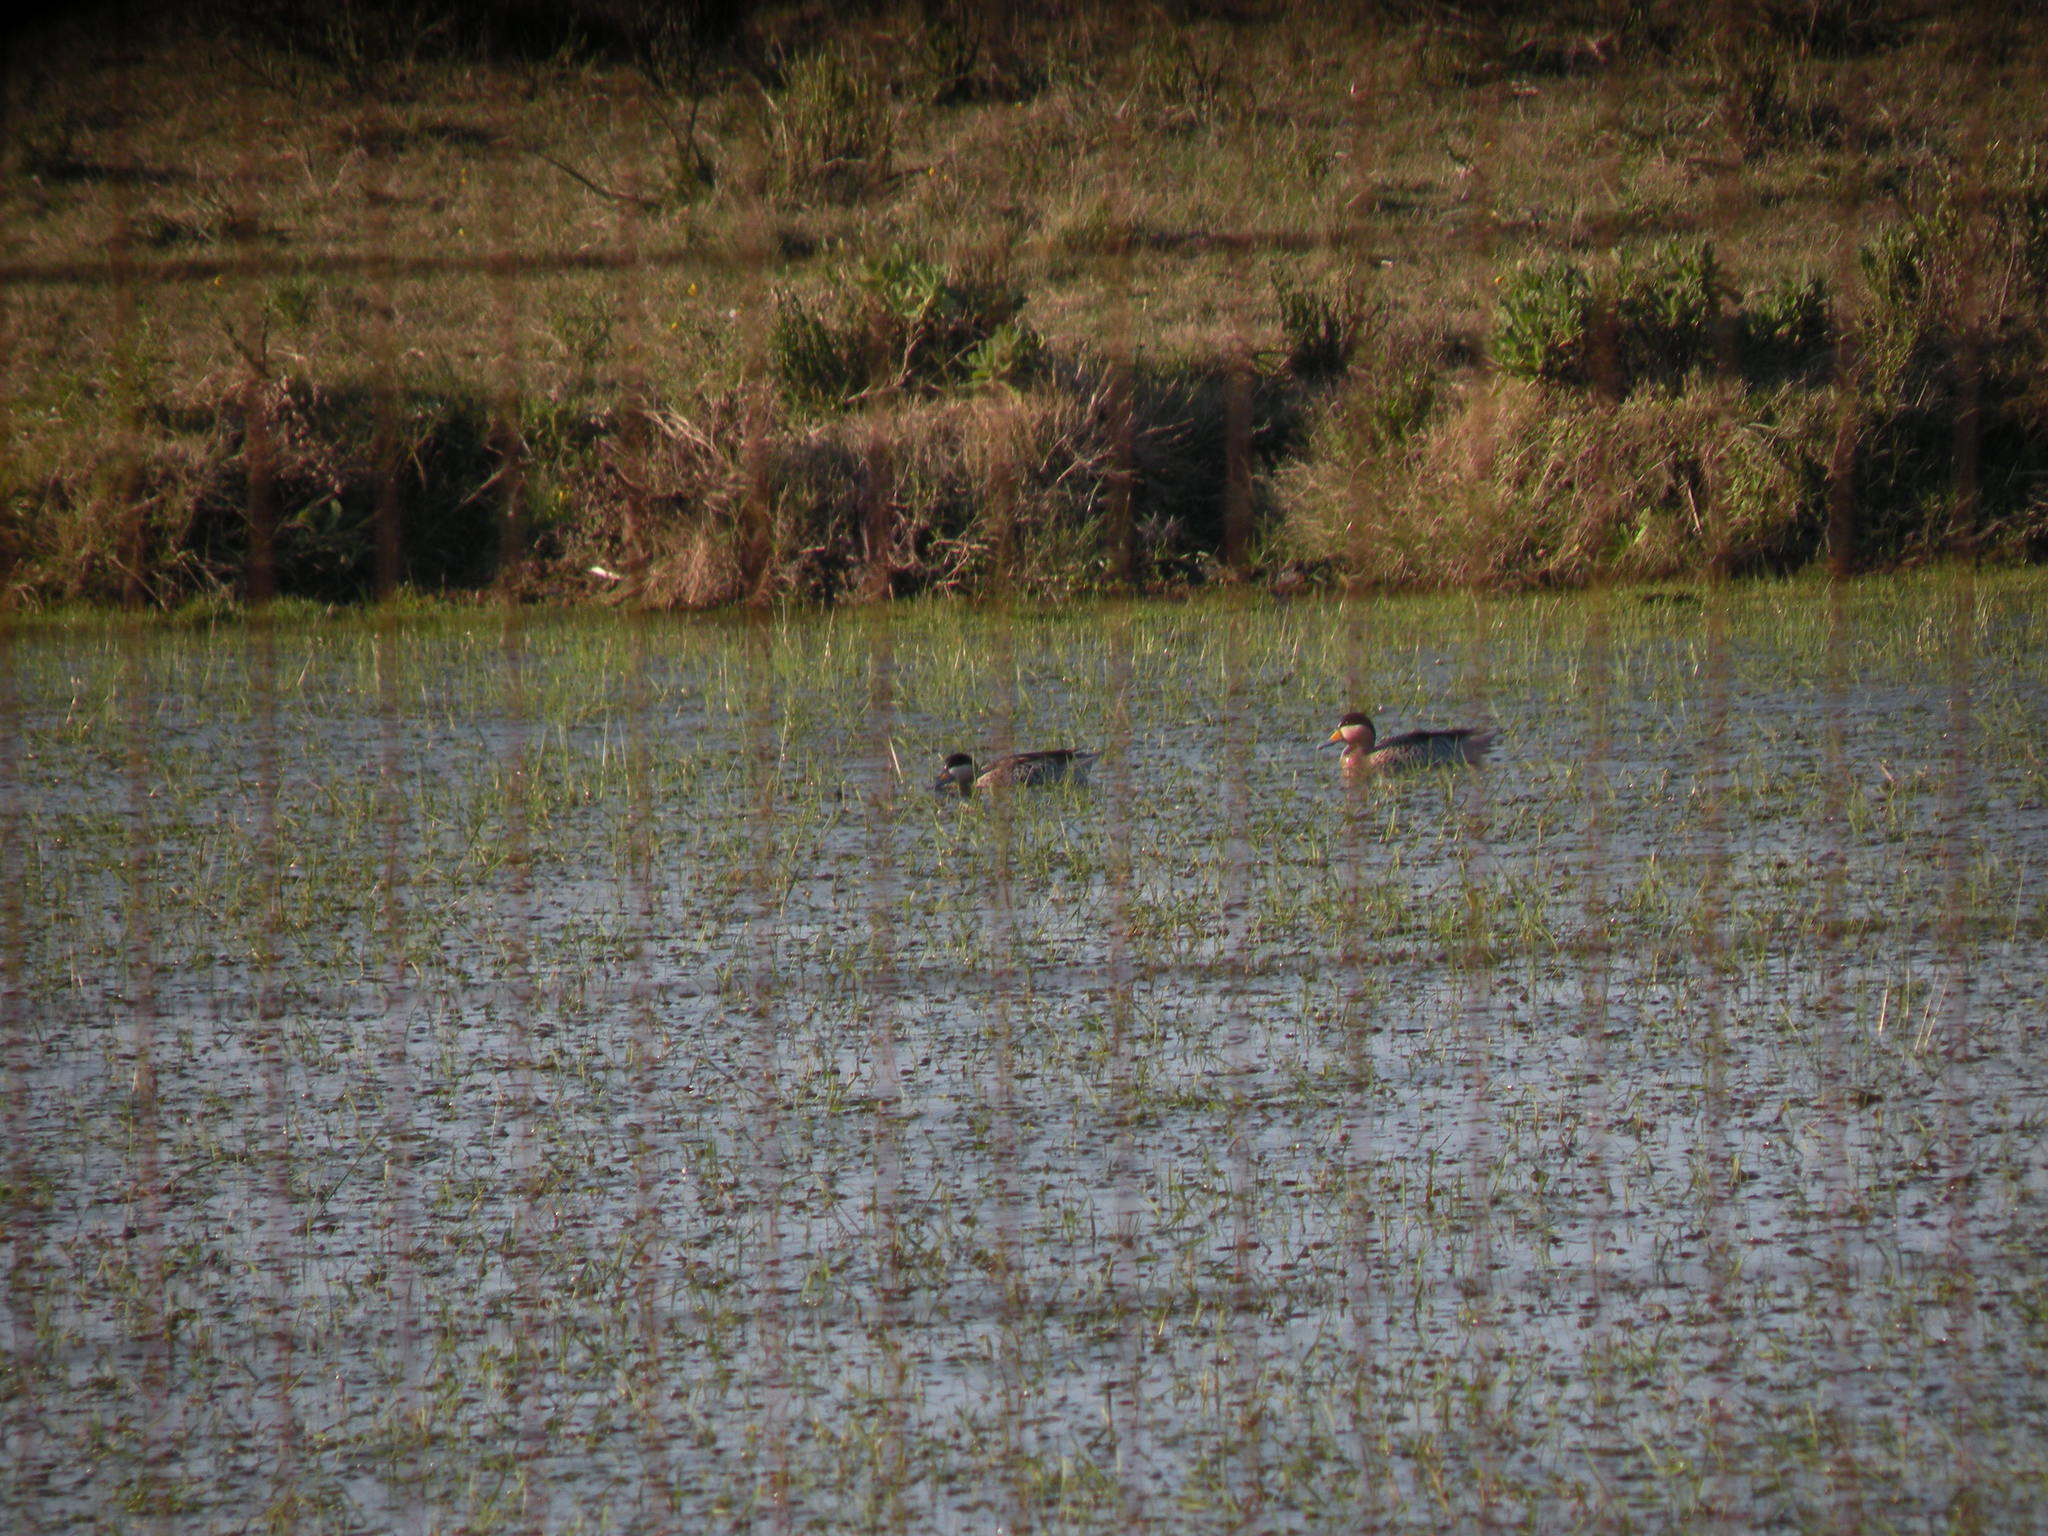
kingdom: Animalia
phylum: Chordata
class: Aves
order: Anseriformes
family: Anatidae
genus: Spatula
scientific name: Spatula versicolor
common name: Silver teal
